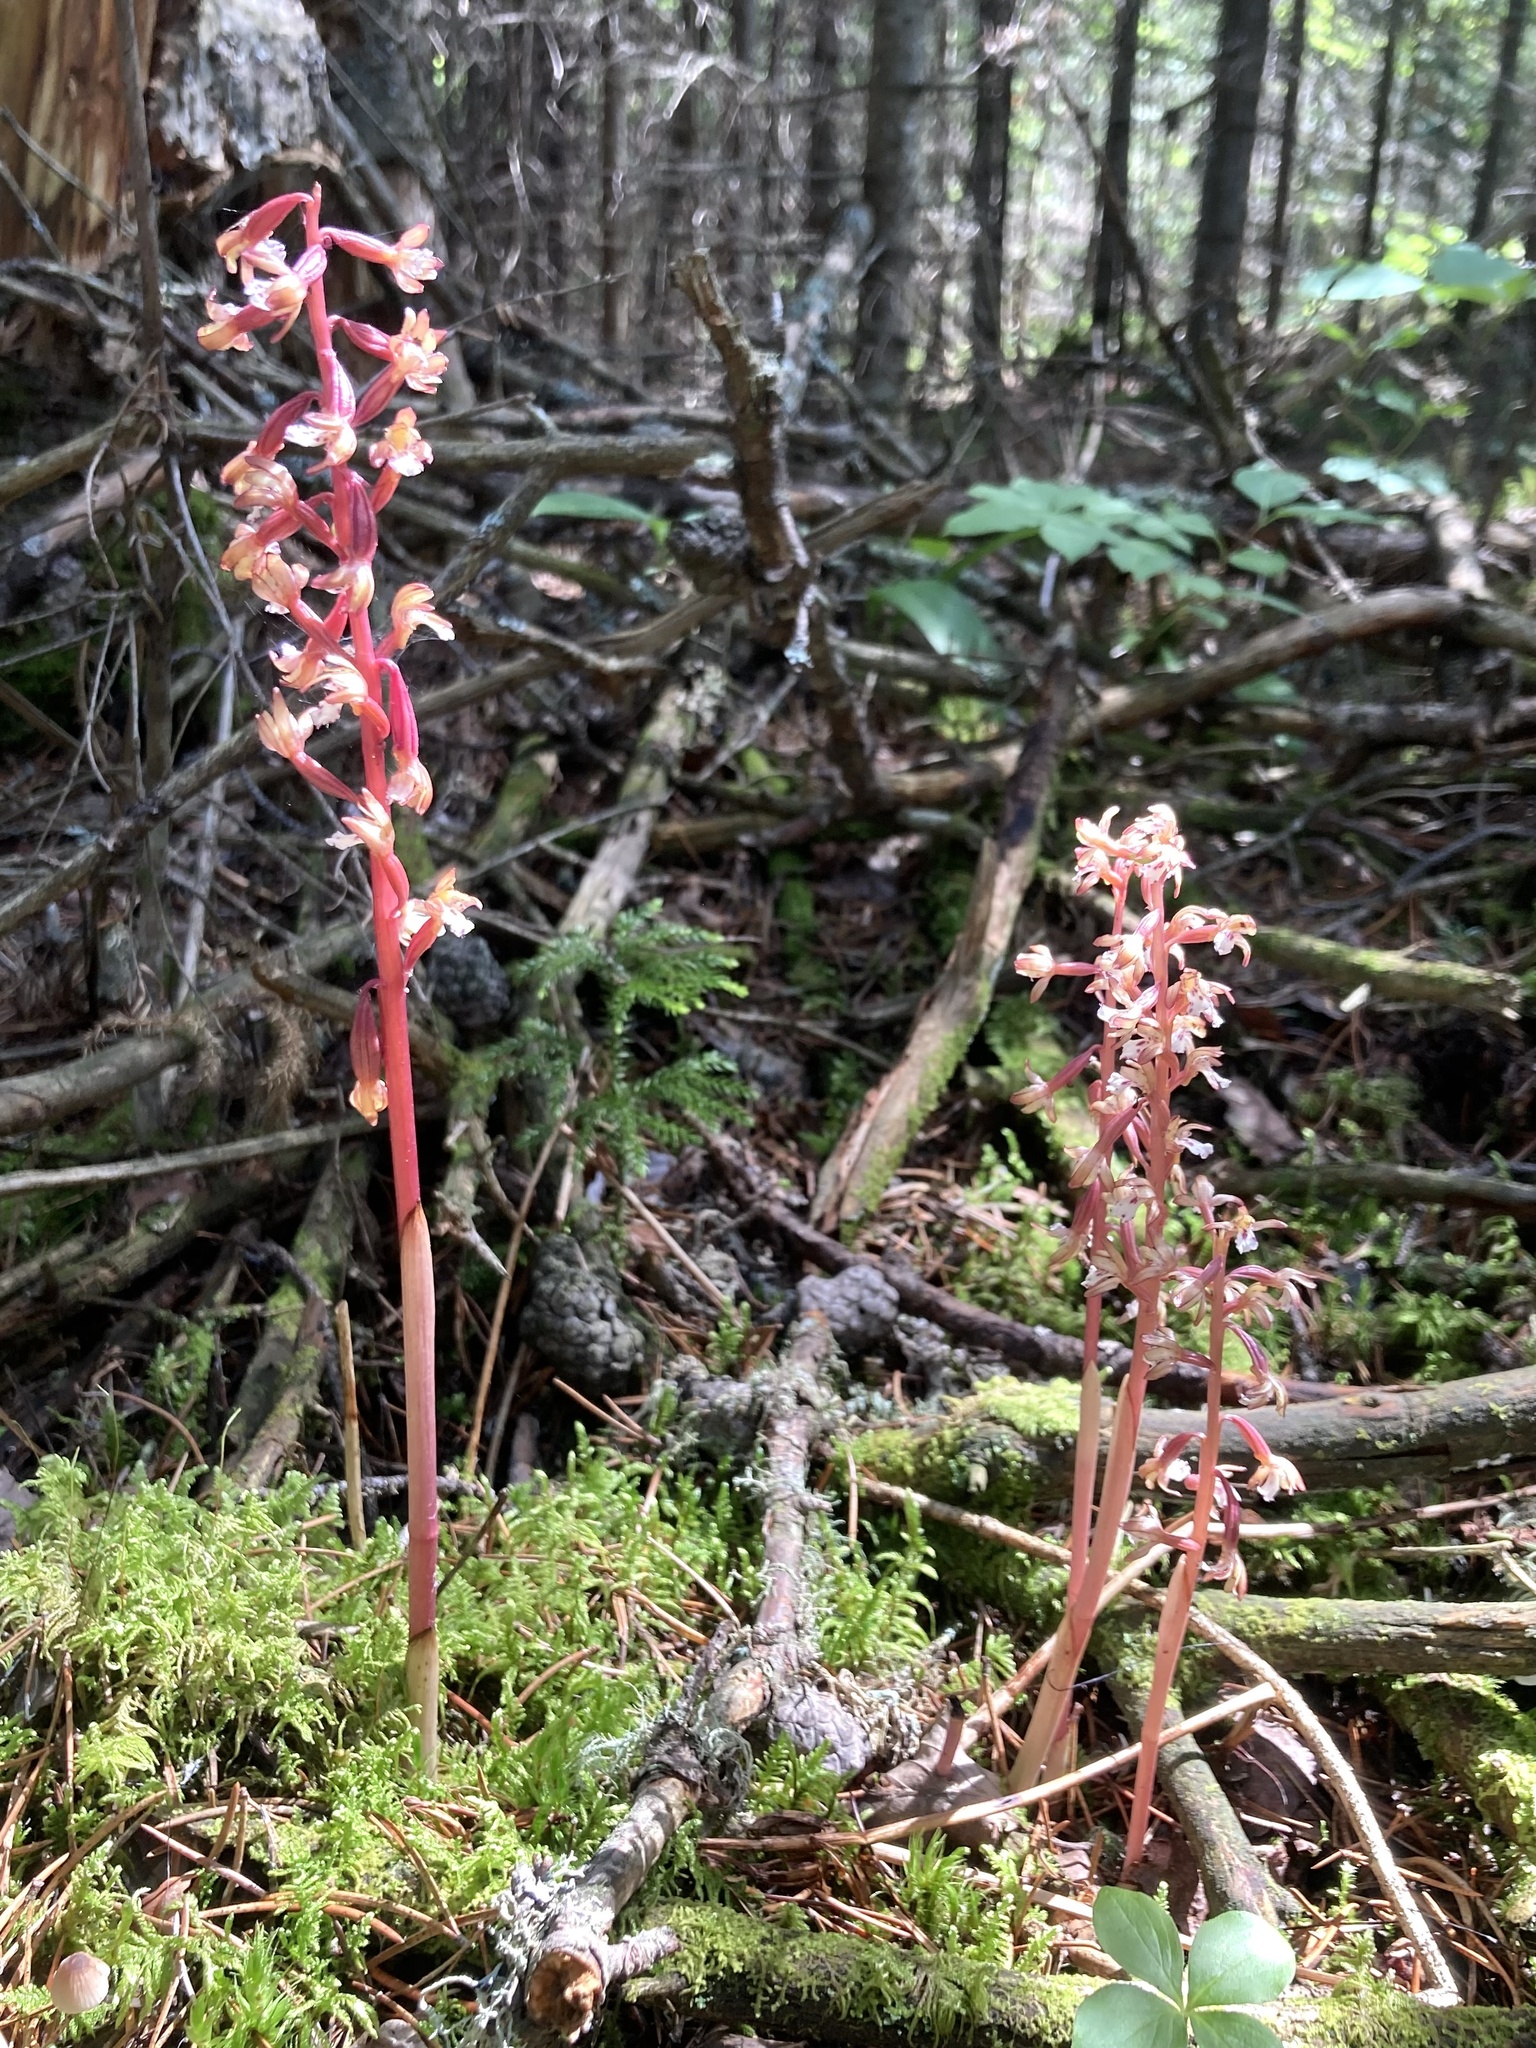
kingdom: Plantae
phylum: Tracheophyta
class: Liliopsida
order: Asparagales
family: Orchidaceae
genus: Corallorhiza
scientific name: Corallorhiza maculata
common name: Spotted coralroot
